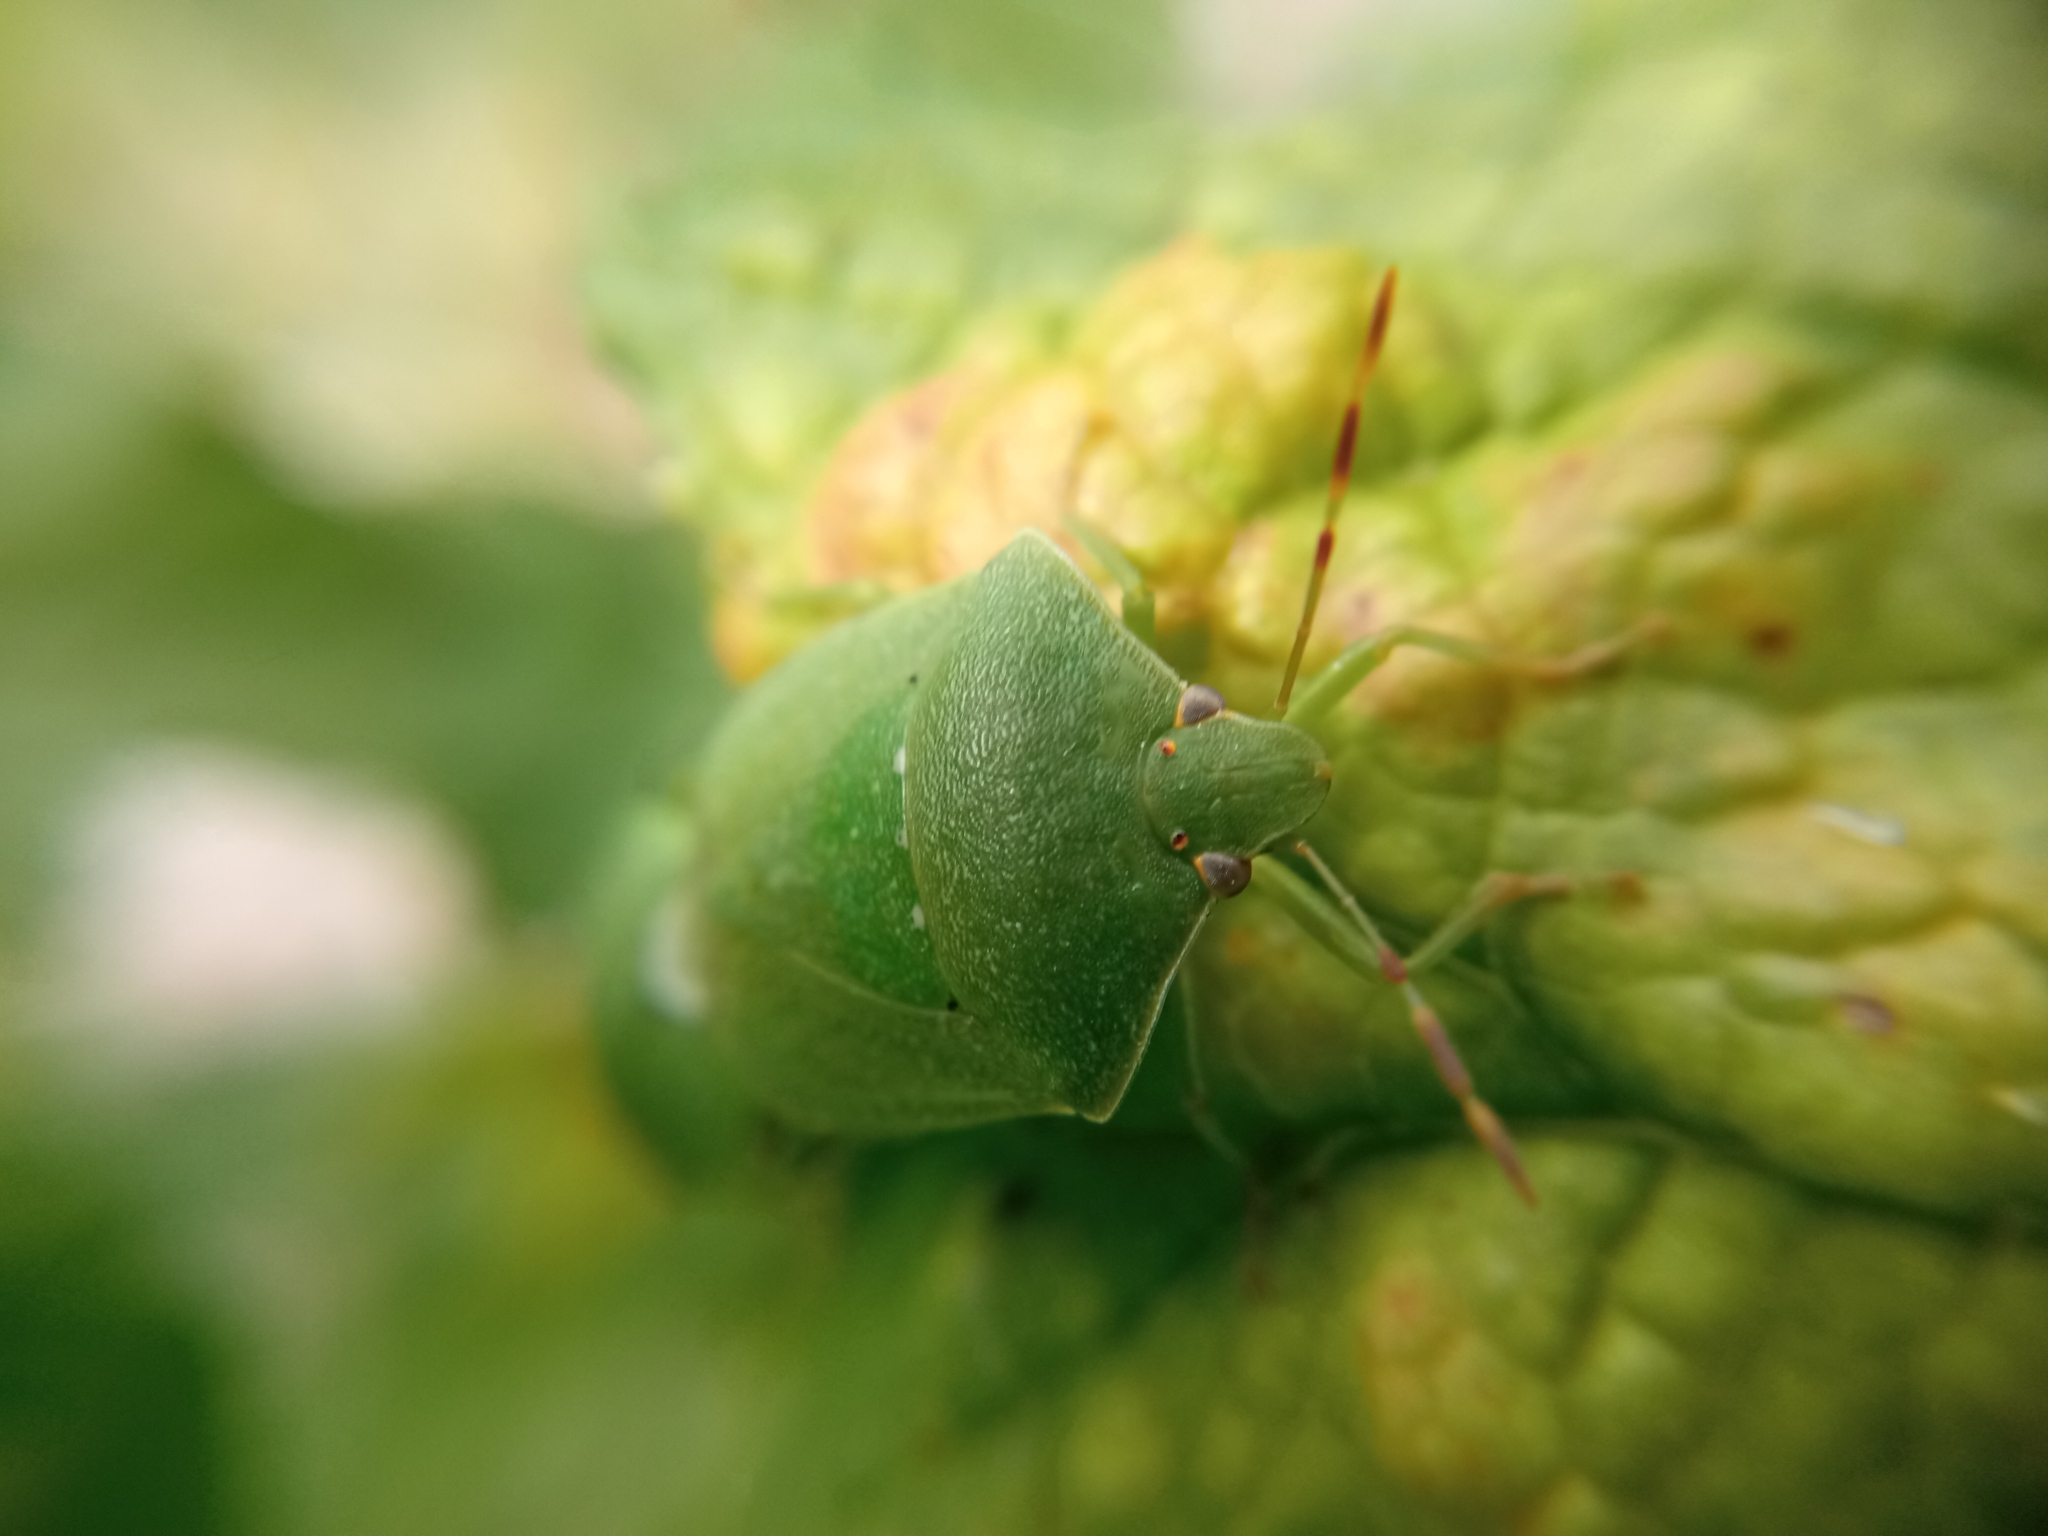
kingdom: Animalia
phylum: Arthropoda
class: Insecta
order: Hemiptera
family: Pentatomidae
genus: Nezara
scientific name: Nezara viridula
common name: Southern green stink bug
